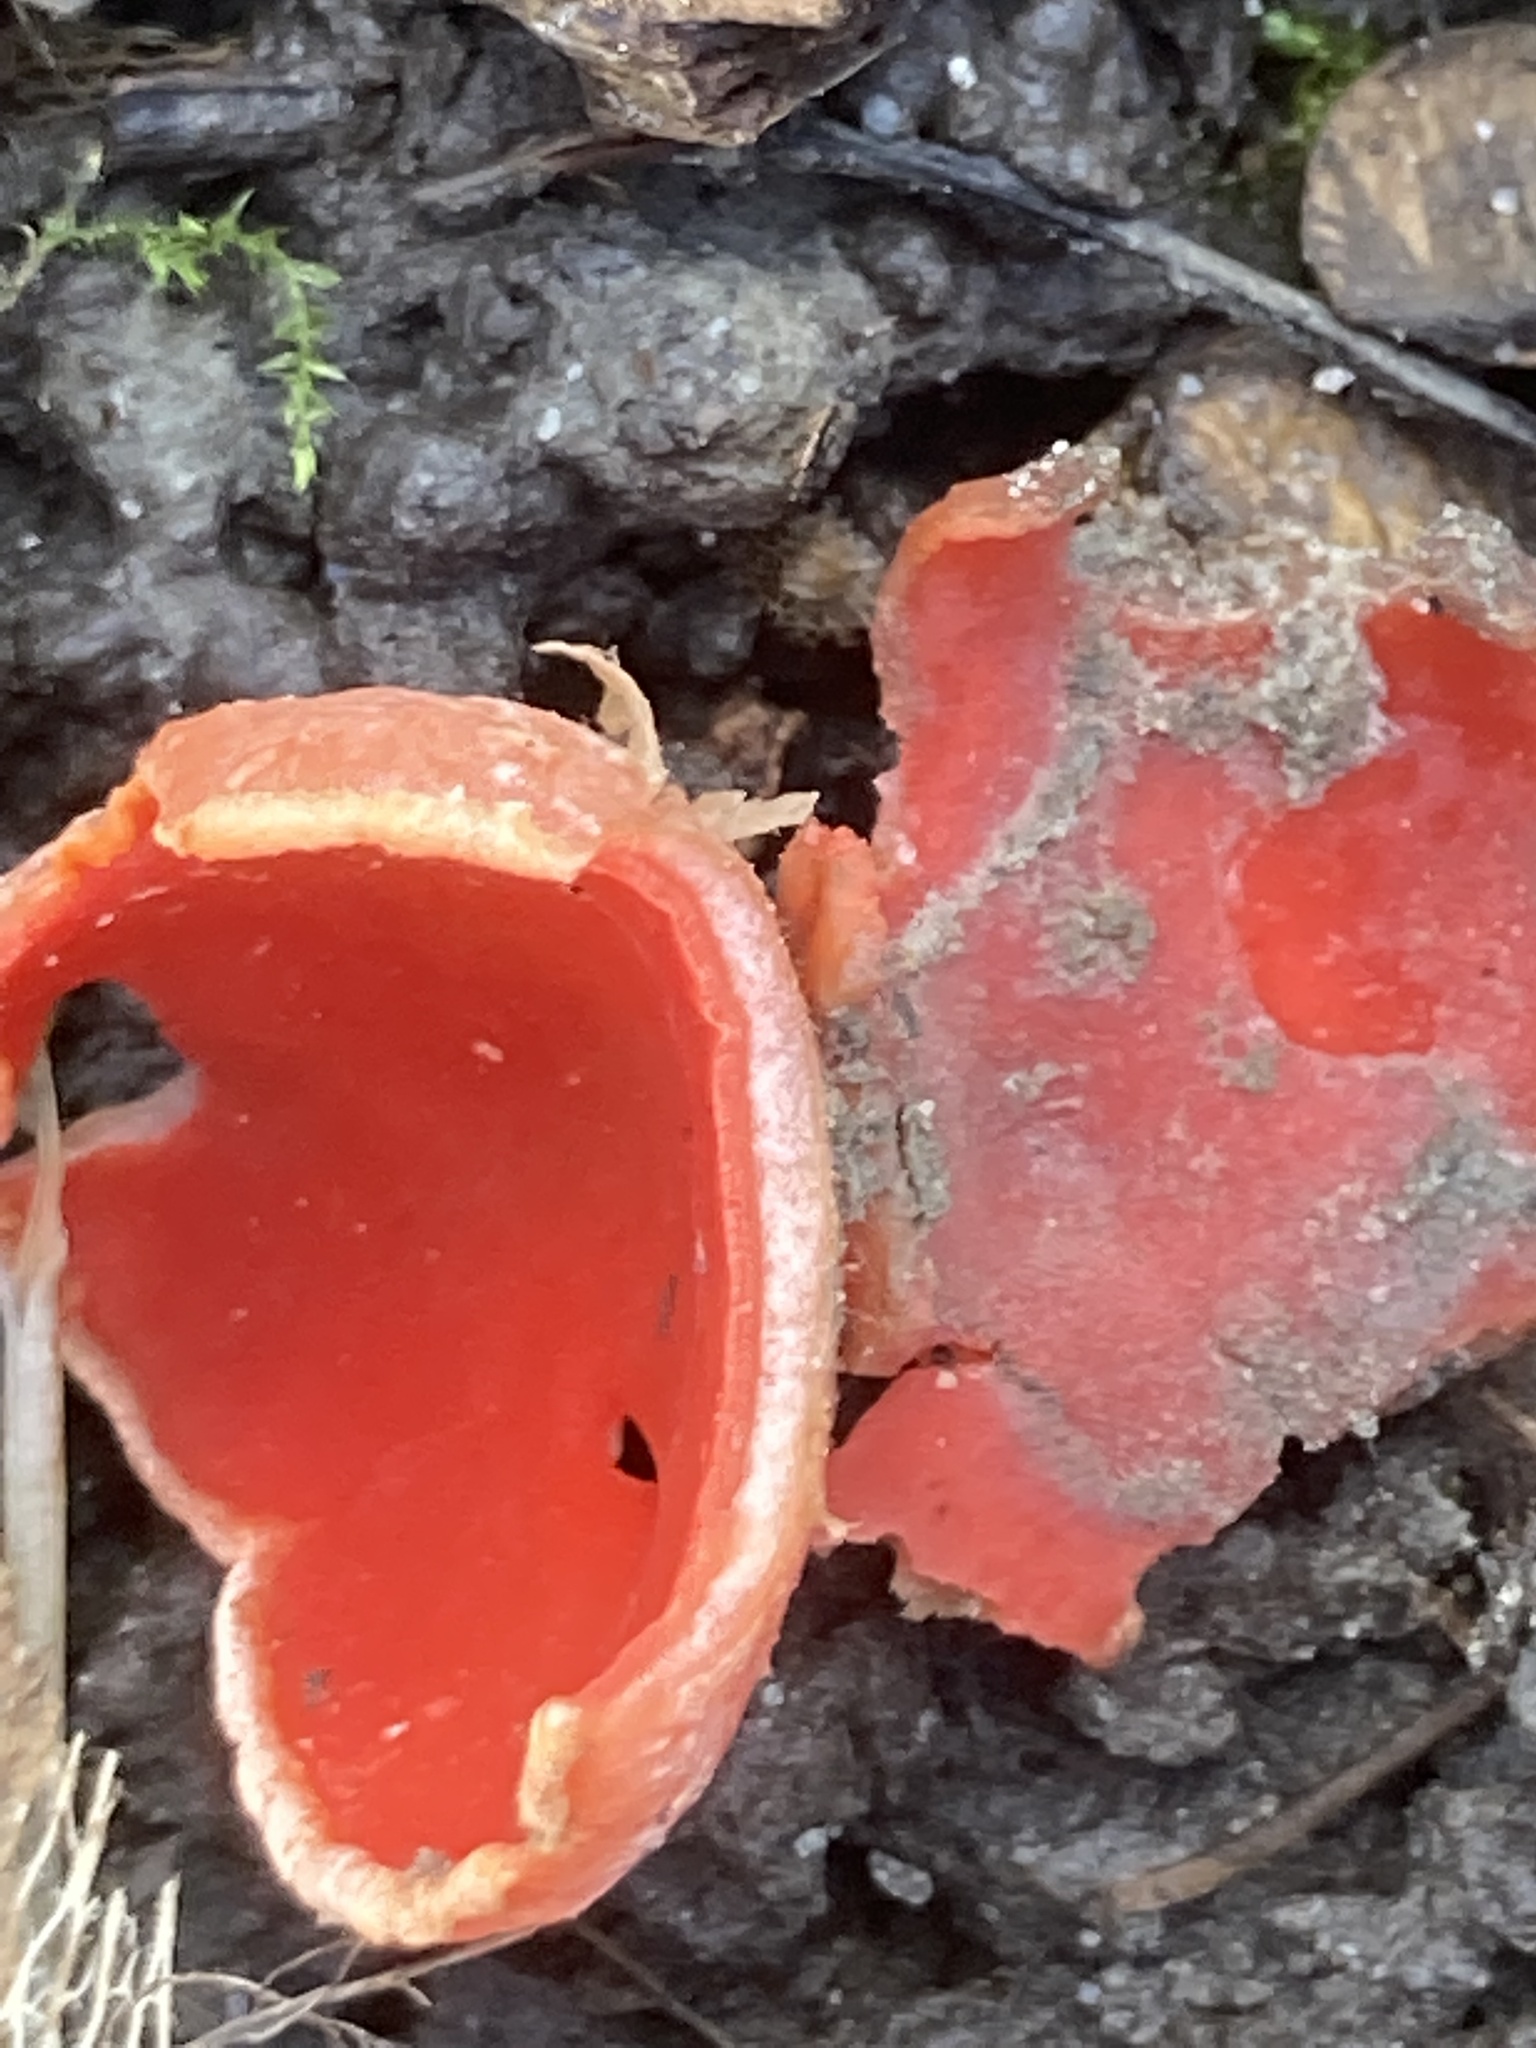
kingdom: Fungi
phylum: Ascomycota
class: Pezizomycetes
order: Pezizales
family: Sarcoscyphaceae
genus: Sarcoscypha
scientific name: Sarcoscypha
